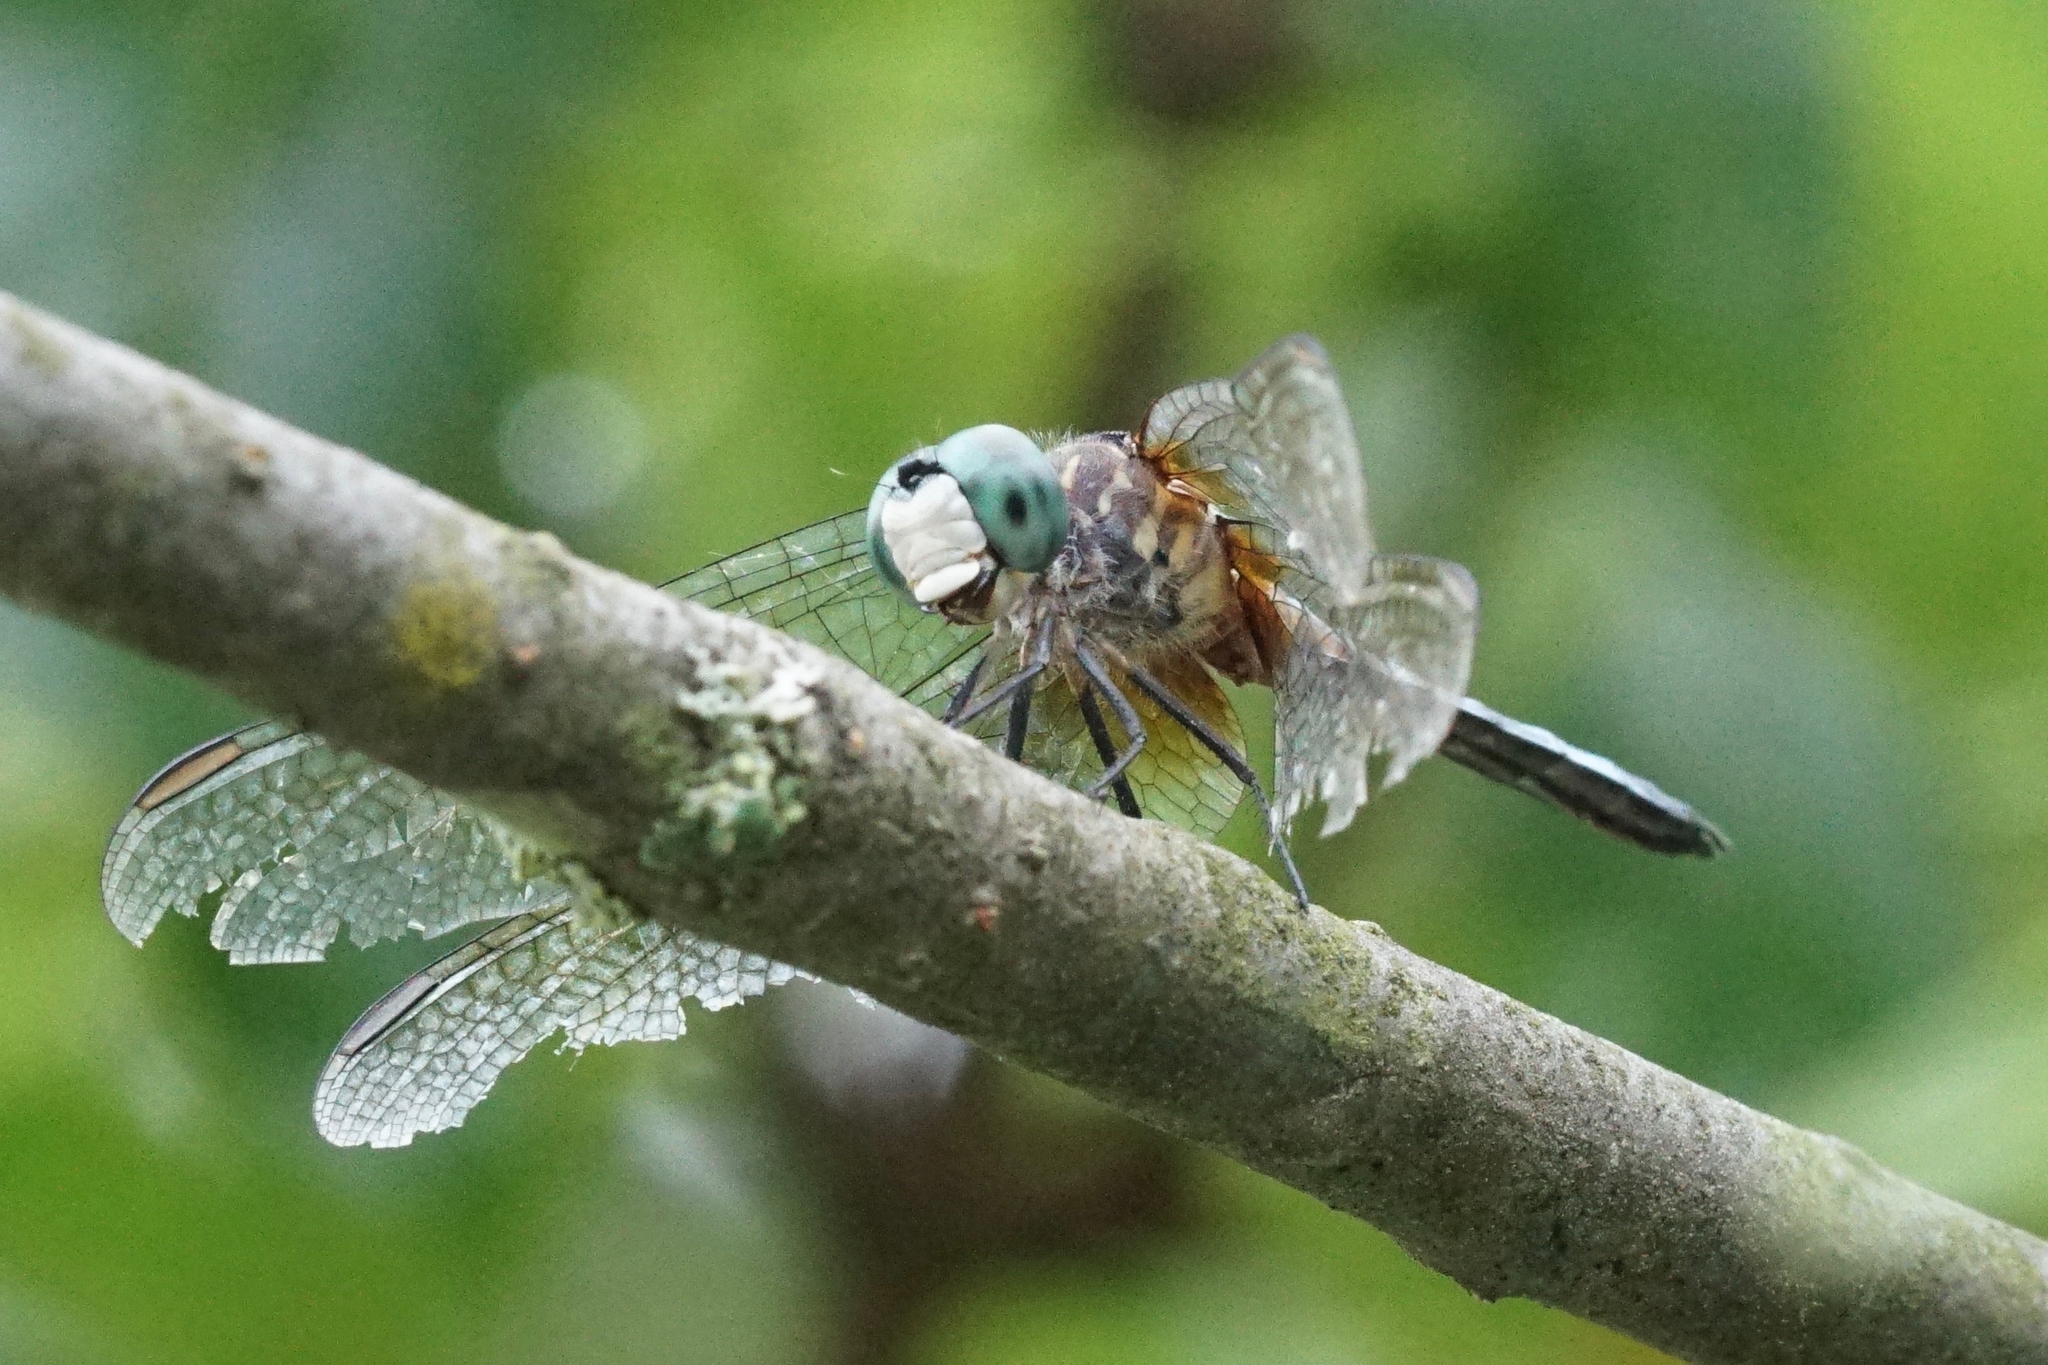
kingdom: Animalia
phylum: Arthropoda
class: Insecta
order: Odonata
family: Libellulidae
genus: Pachydiplax
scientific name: Pachydiplax longipennis
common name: Blue dasher
